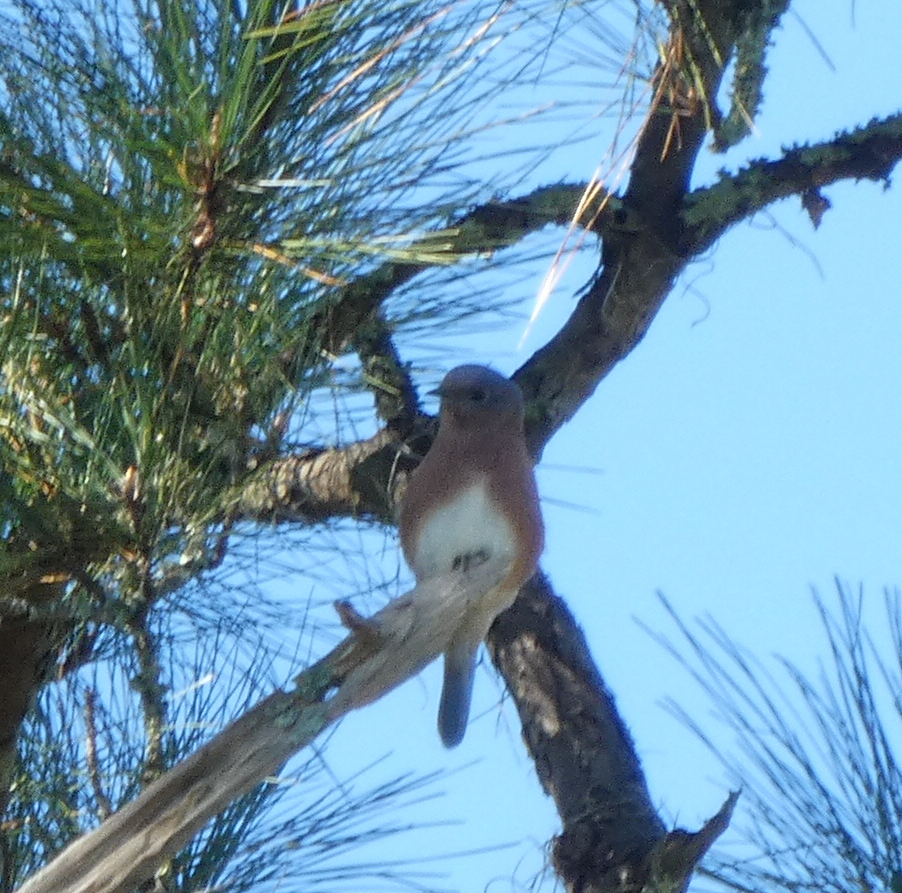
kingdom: Animalia
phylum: Chordata
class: Aves
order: Passeriformes
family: Turdidae
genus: Sialia
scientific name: Sialia sialis
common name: Eastern bluebird
